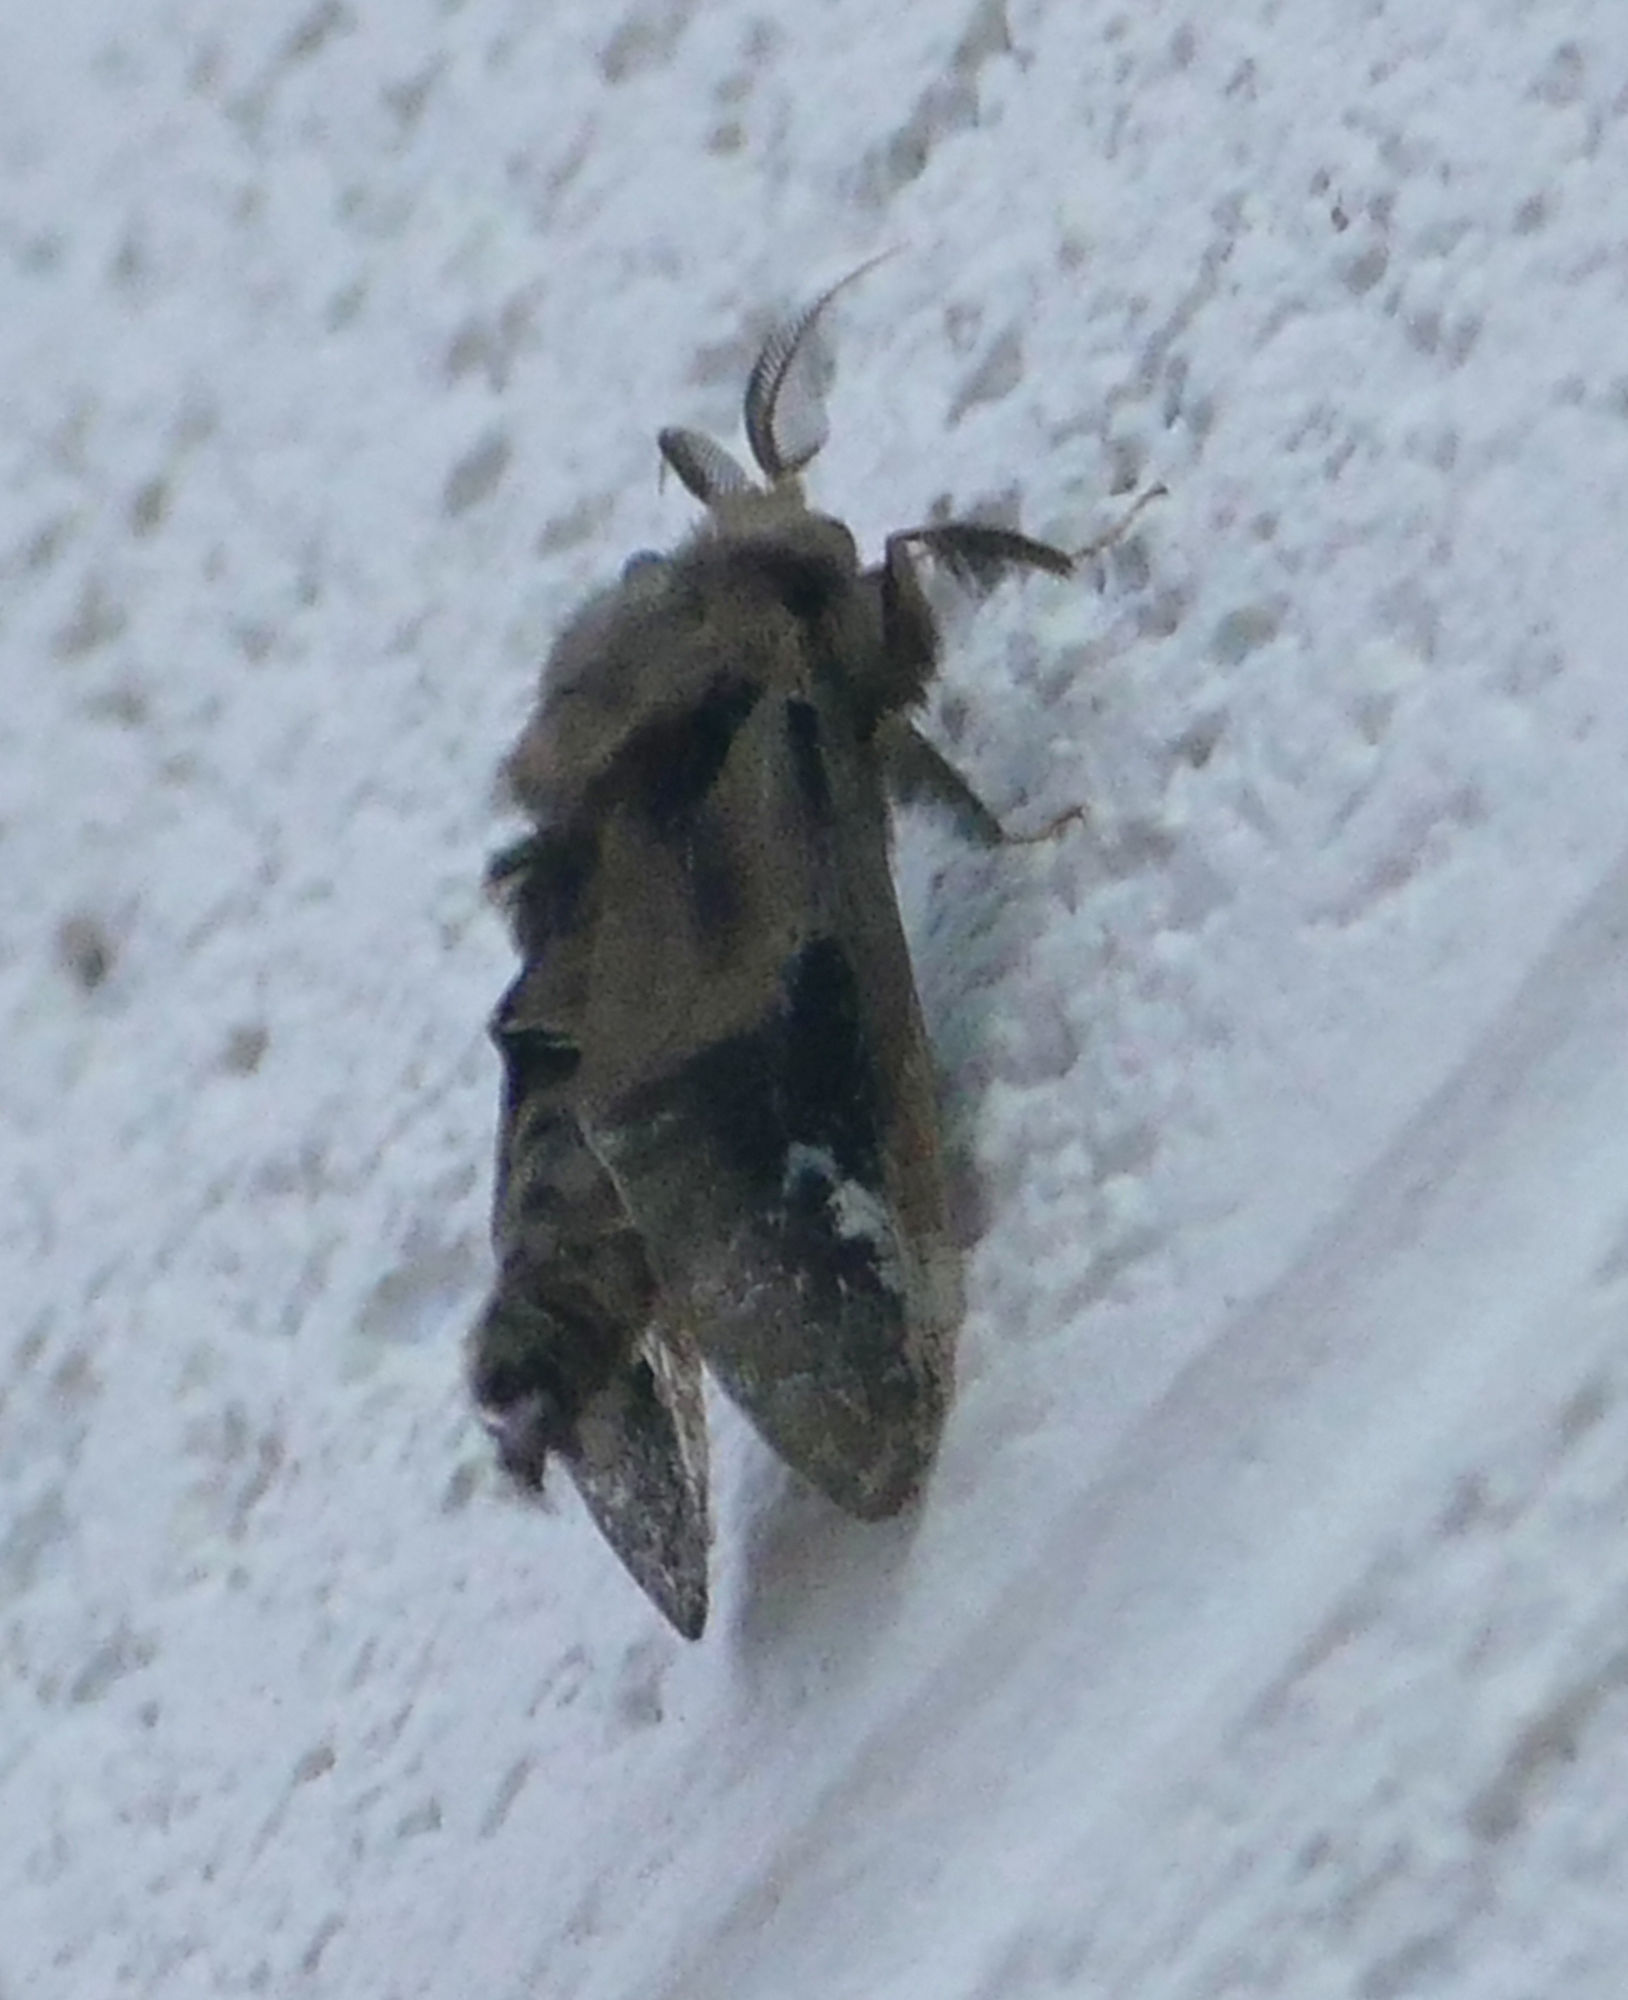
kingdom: Animalia
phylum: Arthropoda
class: Insecta
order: Lepidoptera
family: Psychidae
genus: Oiketicus
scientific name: Oiketicus
